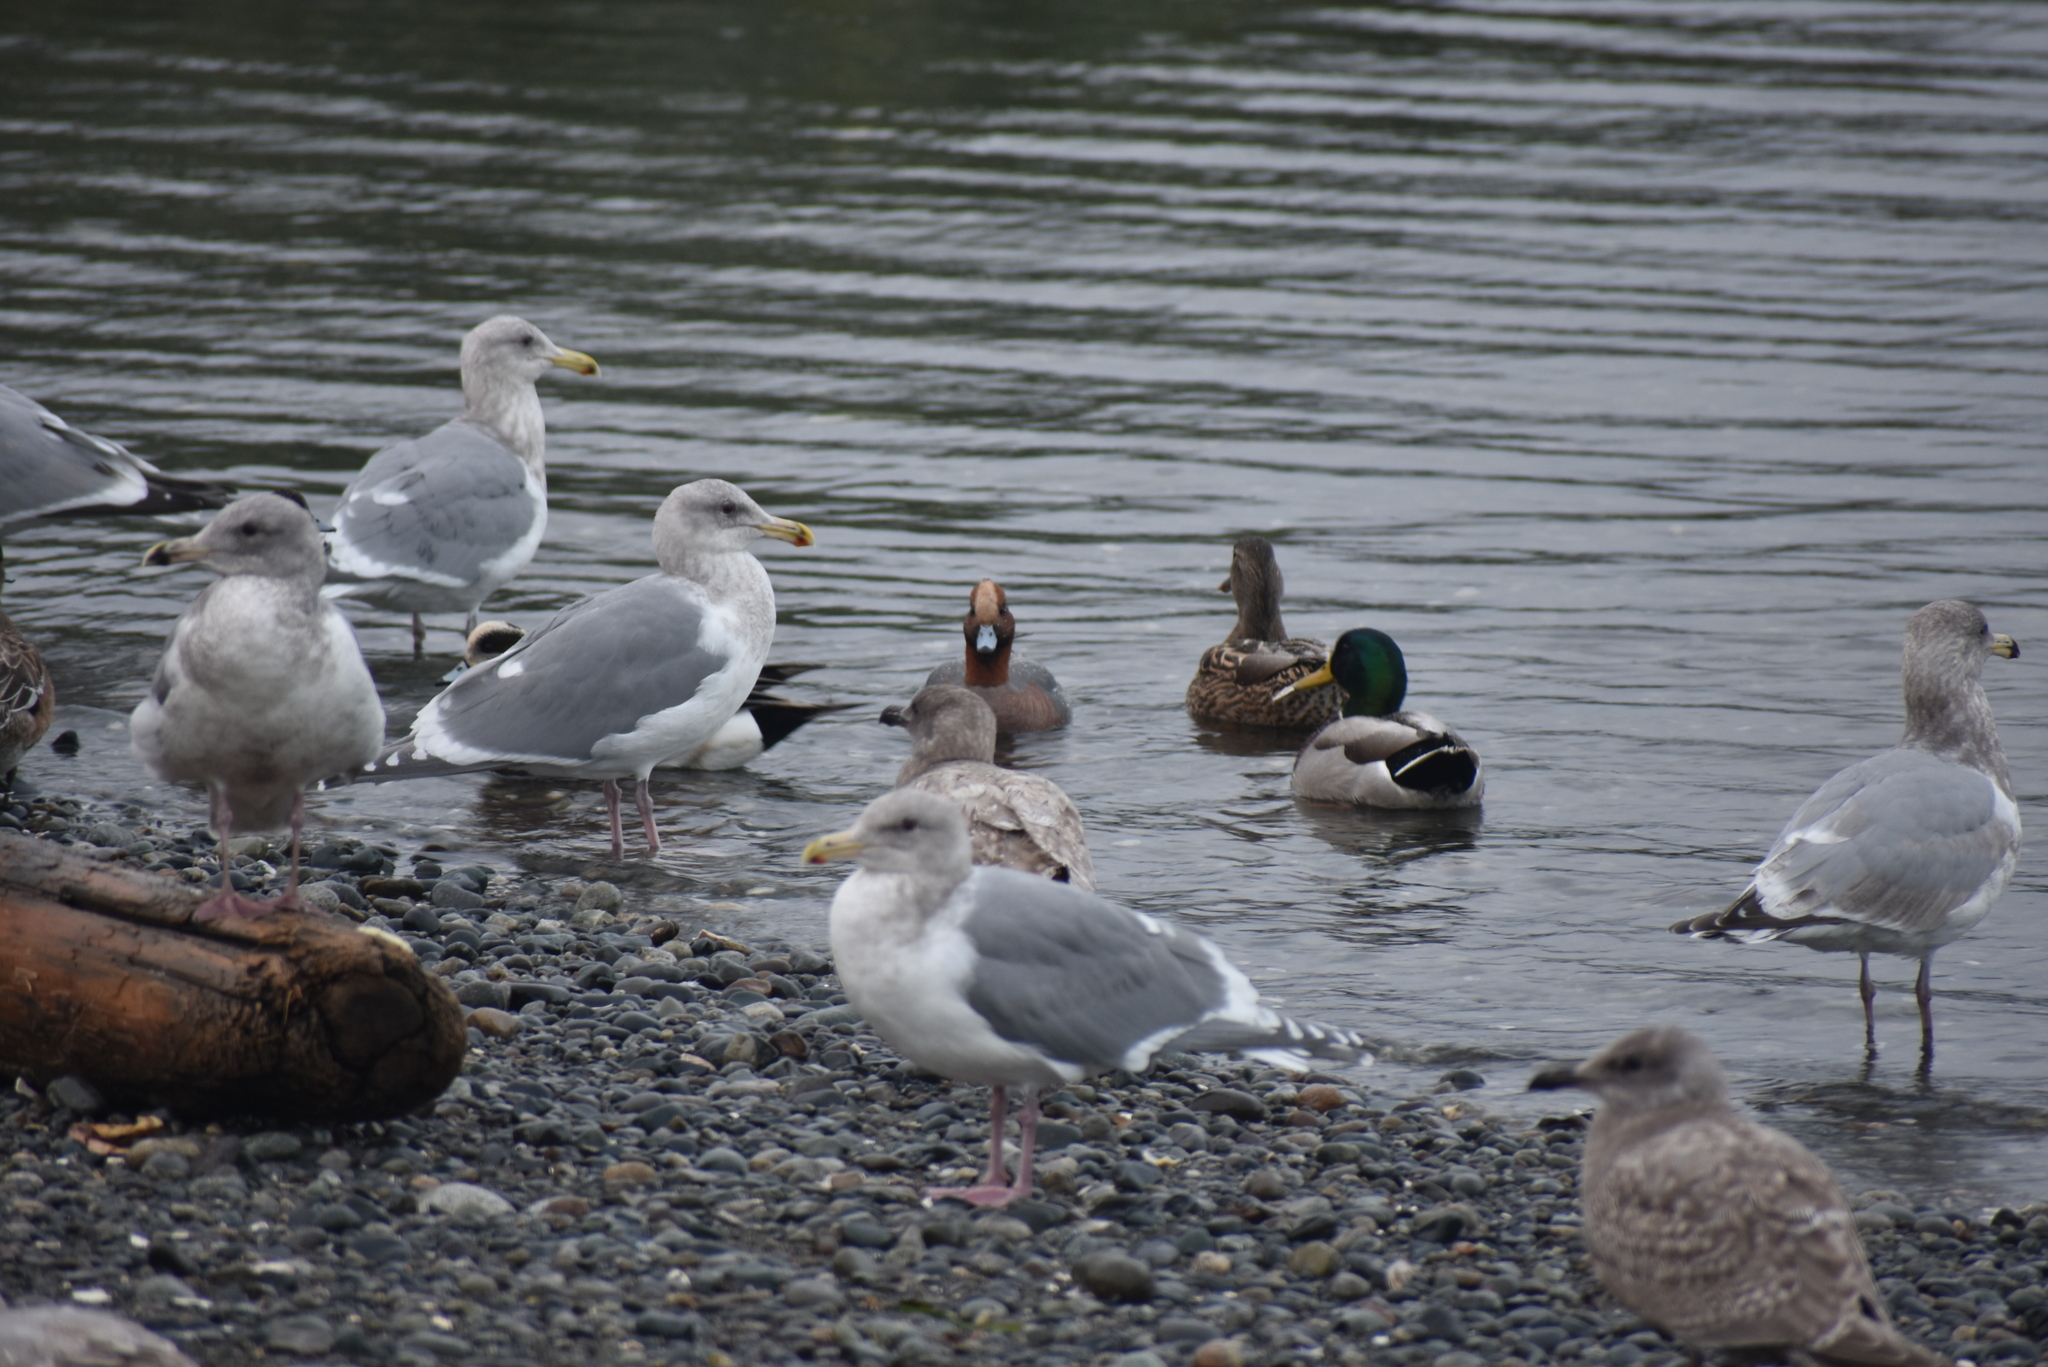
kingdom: Animalia
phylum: Chordata
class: Aves
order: Anseriformes
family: Anatidae
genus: Mareca
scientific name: Mareca penelope
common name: Eurasian wigeon
